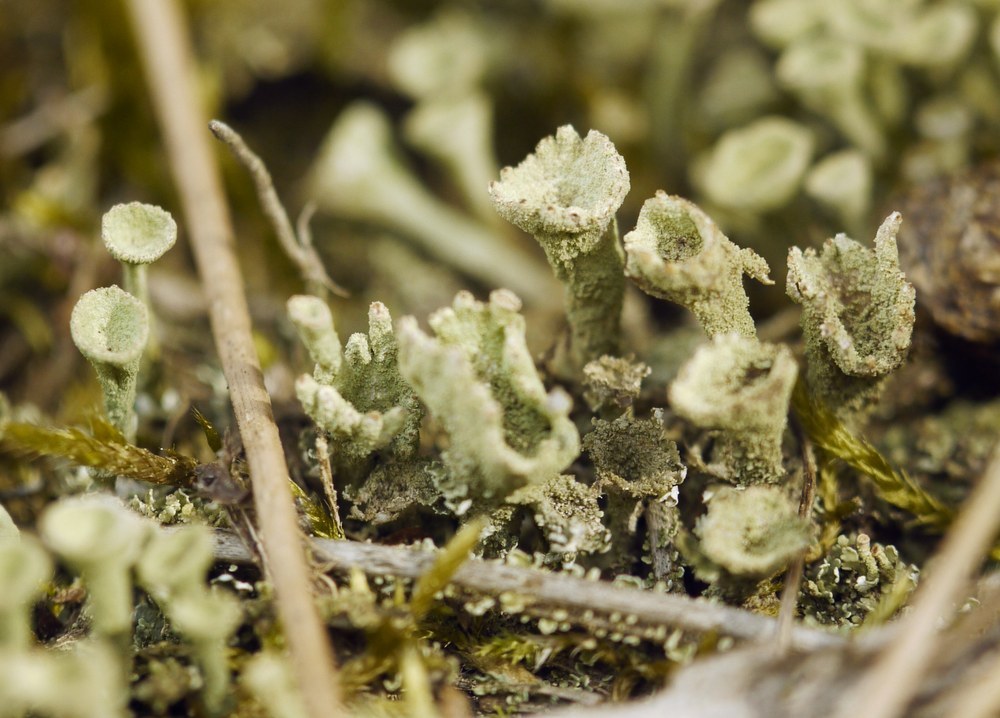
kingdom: Fungi
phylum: Ascomycota
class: Lecanoromycetes
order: Lecanorales
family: Cladoniaceae
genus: Cladonia
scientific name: Cladonia fimbriata
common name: Powdered trumpet lichen
